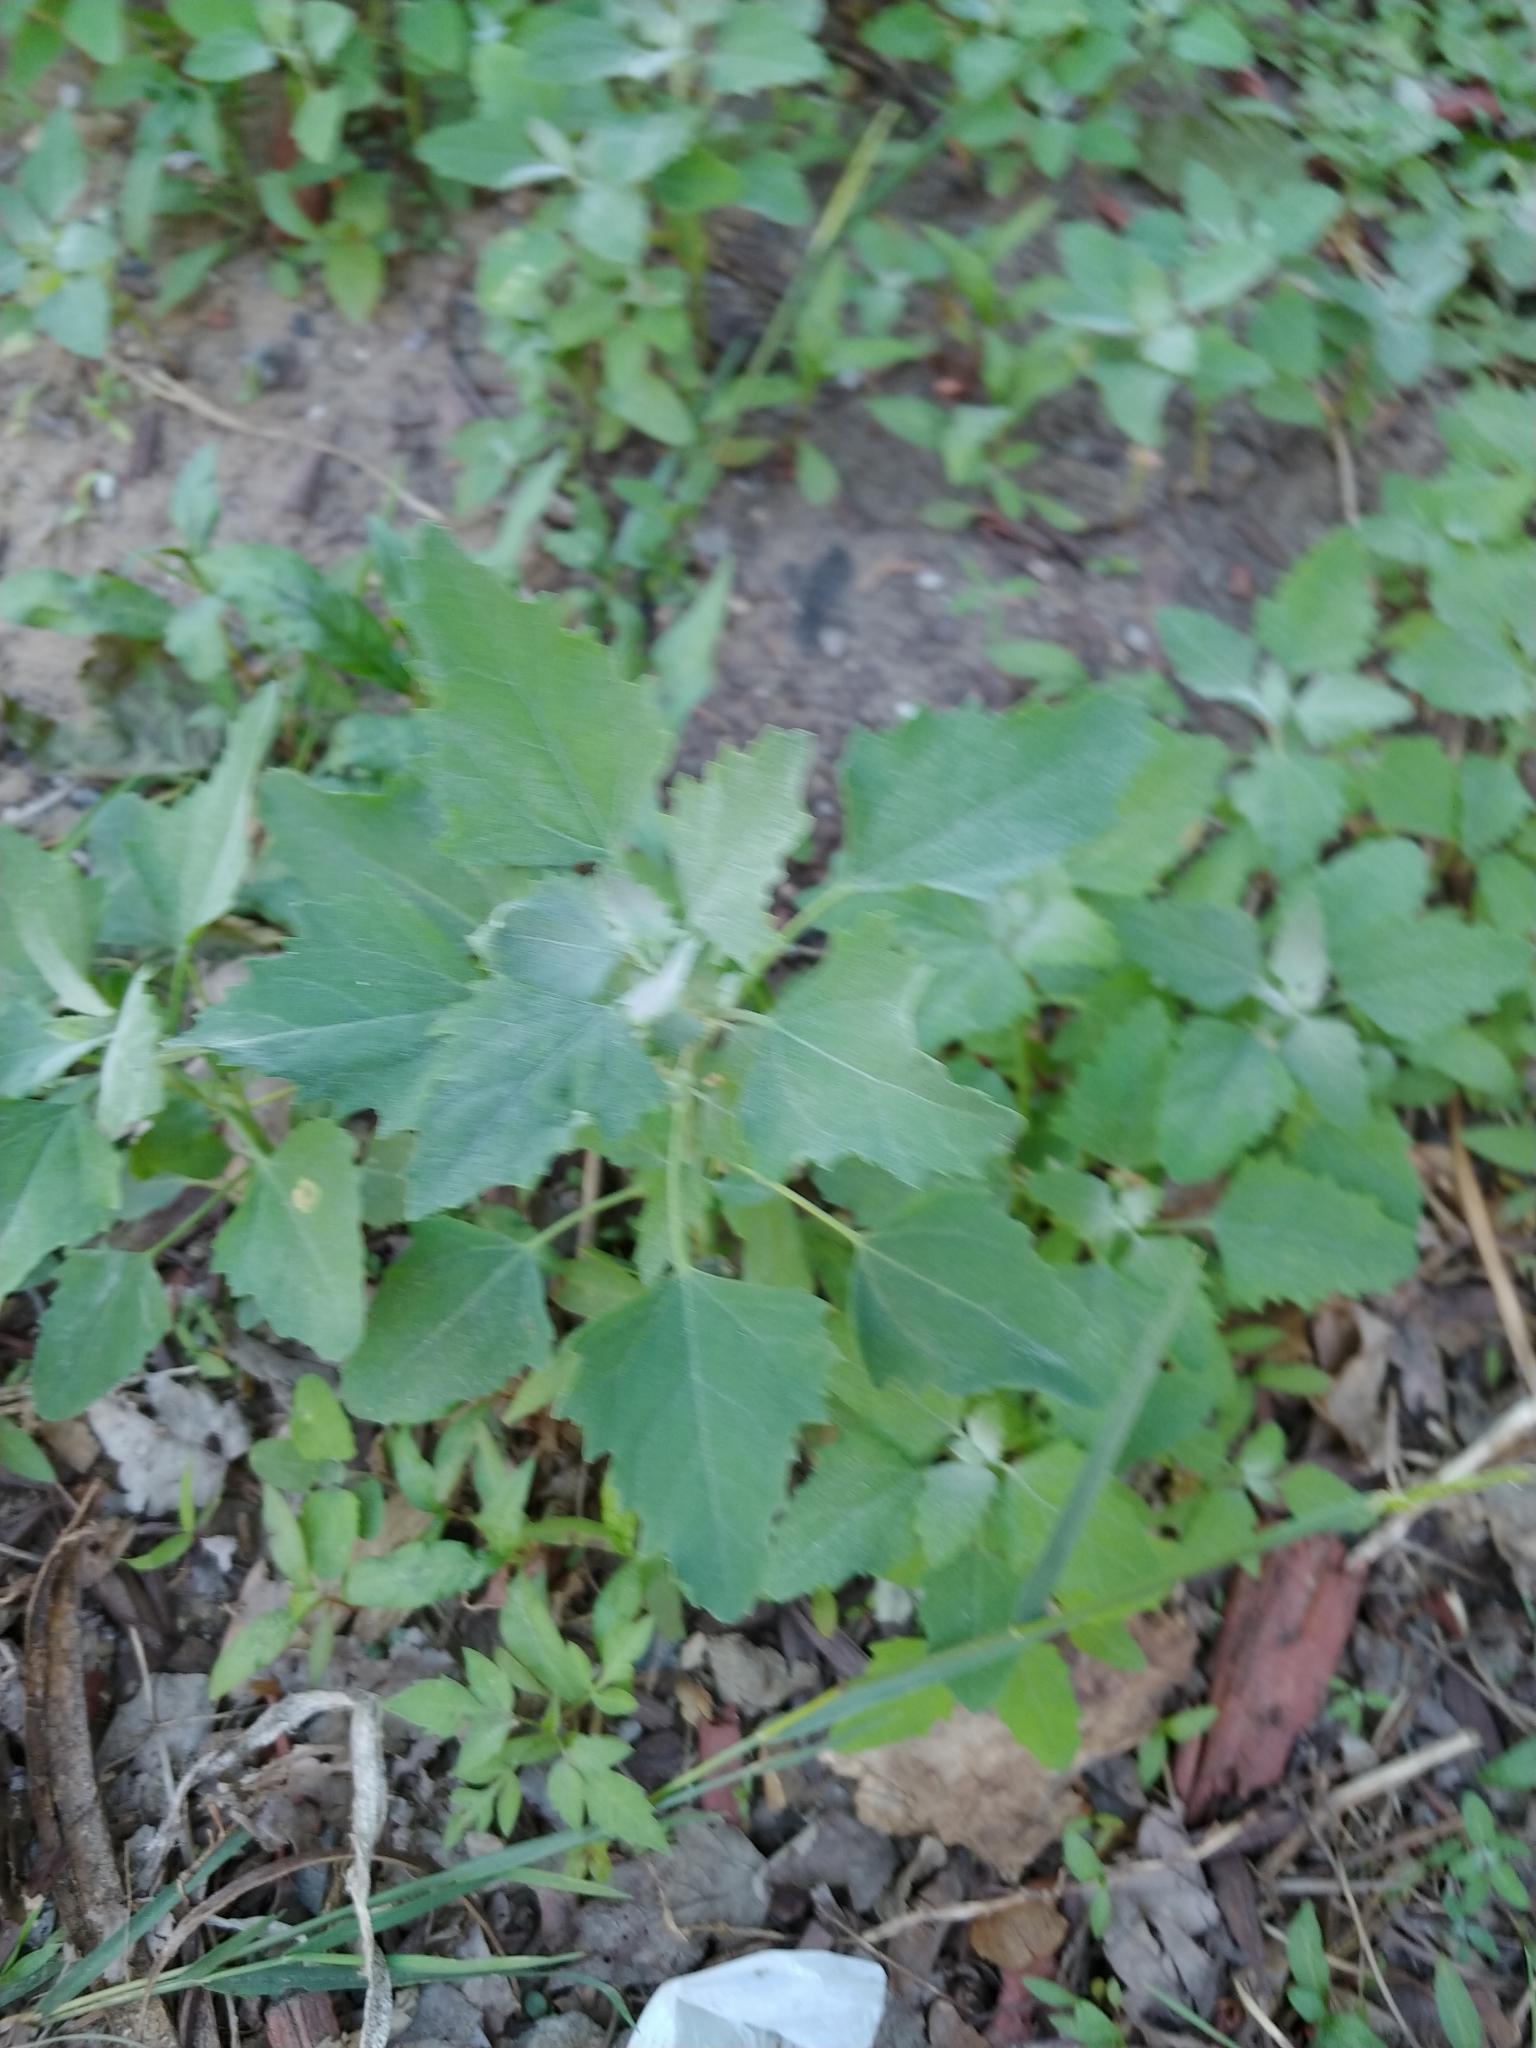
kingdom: Plantae
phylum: Tracheophyta
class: Magnoliopsida
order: Caryophyllales
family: Amaranthaceae
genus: Chenopodium
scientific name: Chenopodium album
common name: Fat-hen
